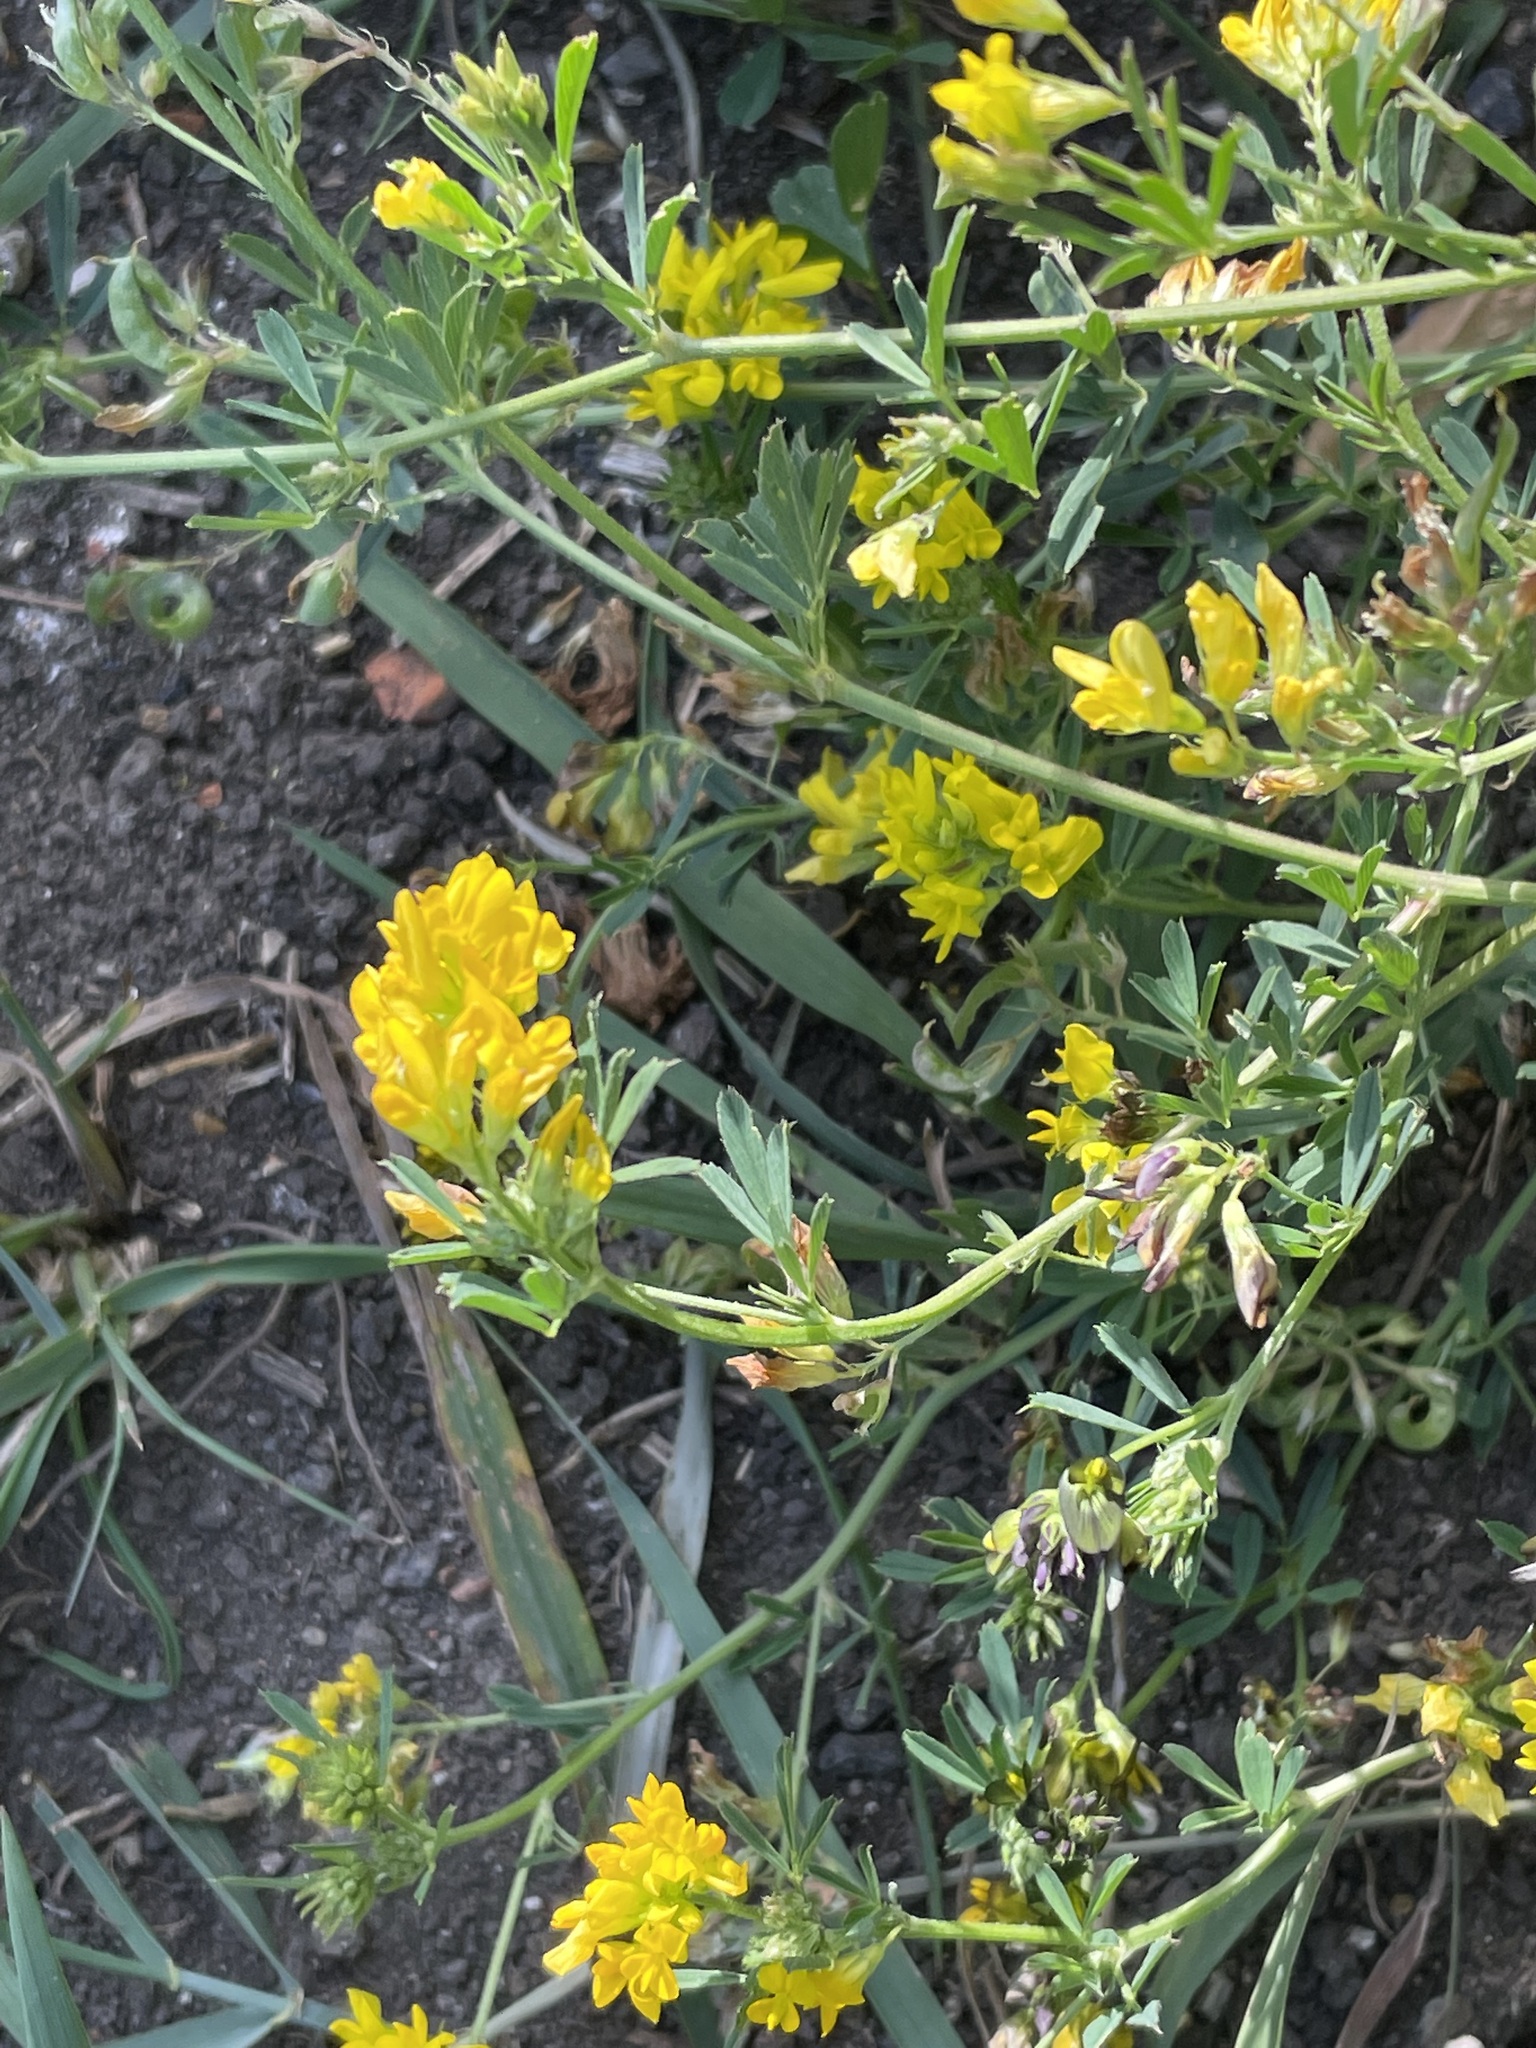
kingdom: Plantae
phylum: Tracheophyta
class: Magnoliopsida
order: Fabales
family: Fabaceae
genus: Medicago
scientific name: Medicago falcata
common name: Sickle medick
